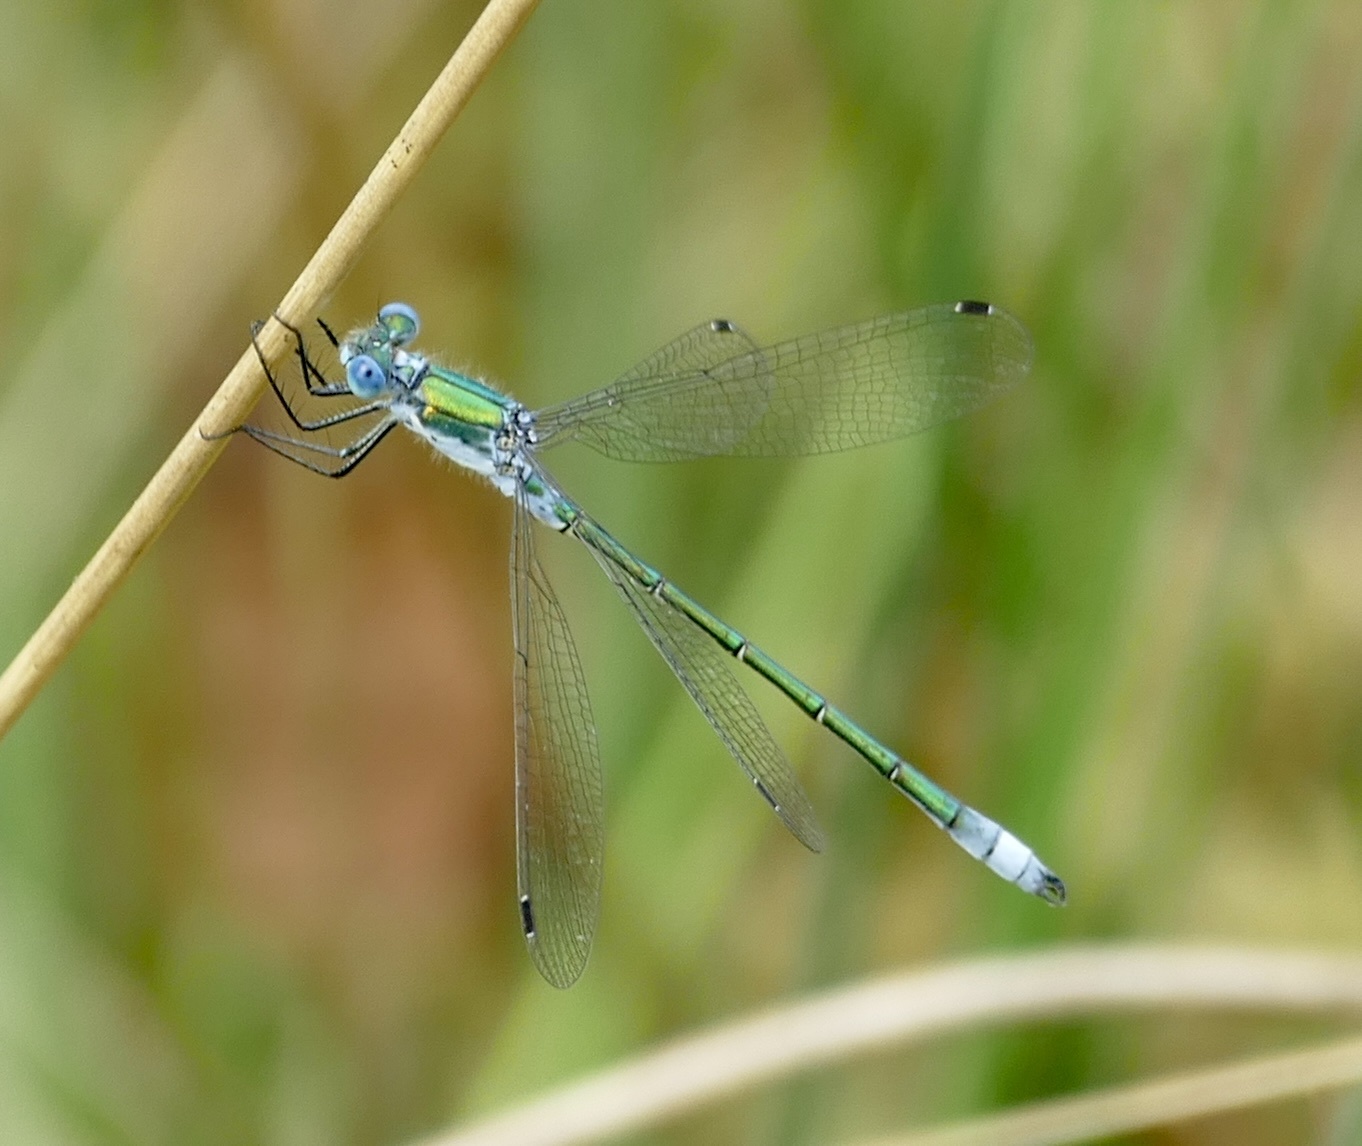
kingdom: Animalia
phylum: Arthropoda
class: Insecta
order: Odonata
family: Lestidae
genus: Lestes
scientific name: Lestes dryas
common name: Scarce emerald damselfly
